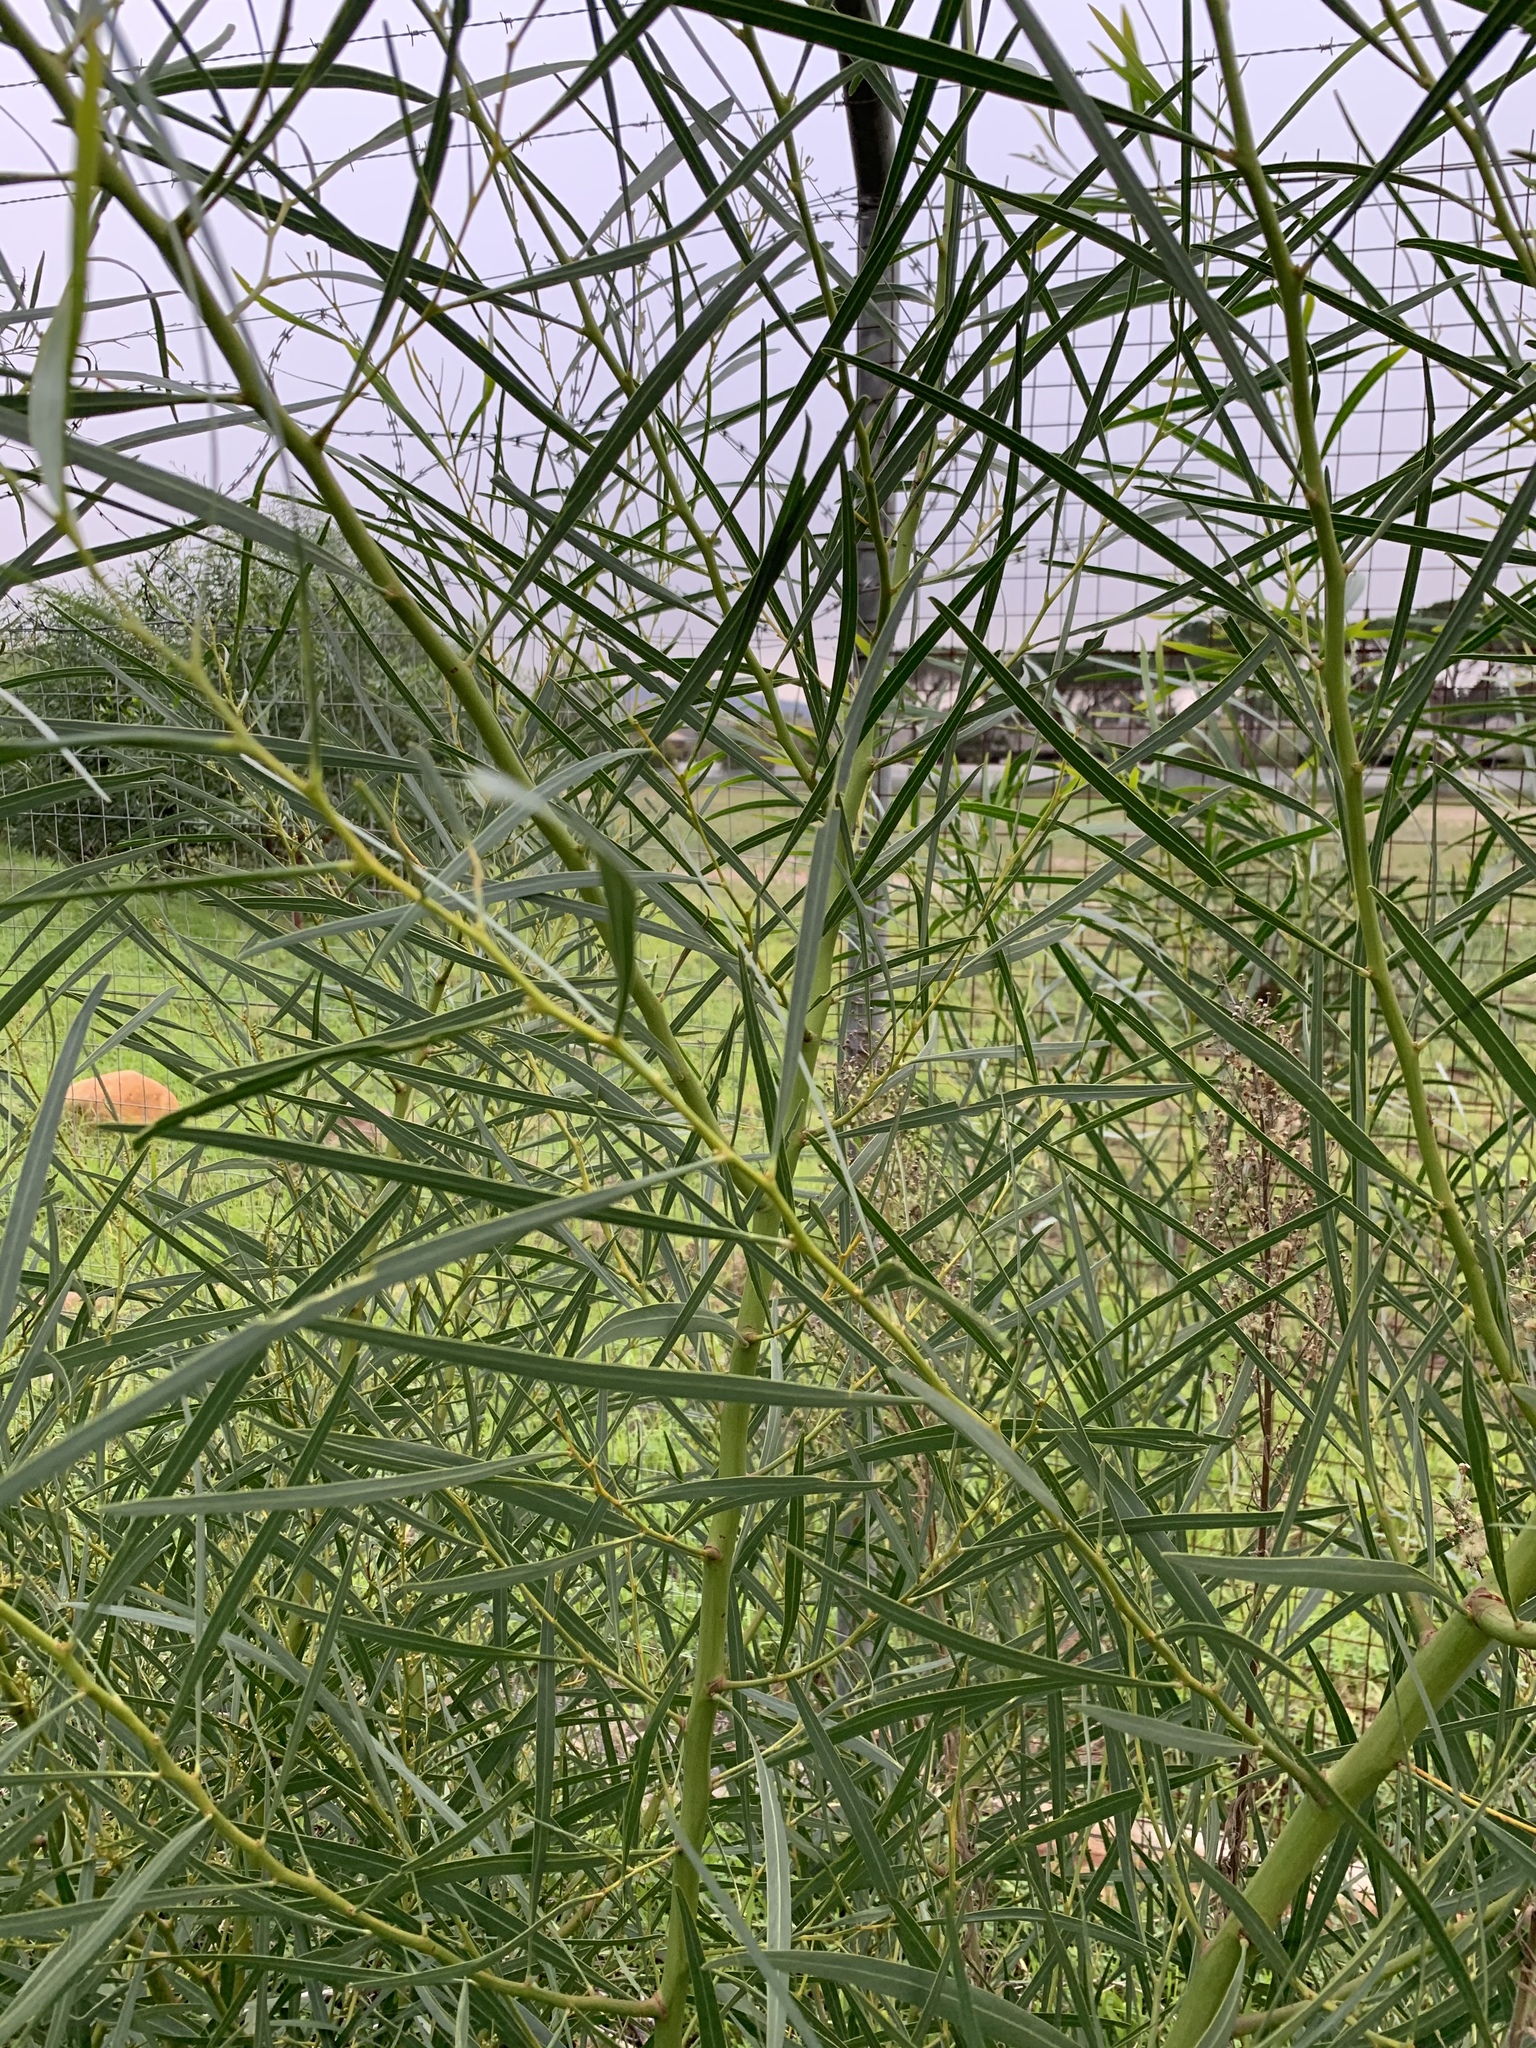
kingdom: Plantae
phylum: Tracheophyta
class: Magnoliopsida
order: Fabales
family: Fabaceae
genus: Acacia
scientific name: Acacia saligna
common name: Orange wattle
